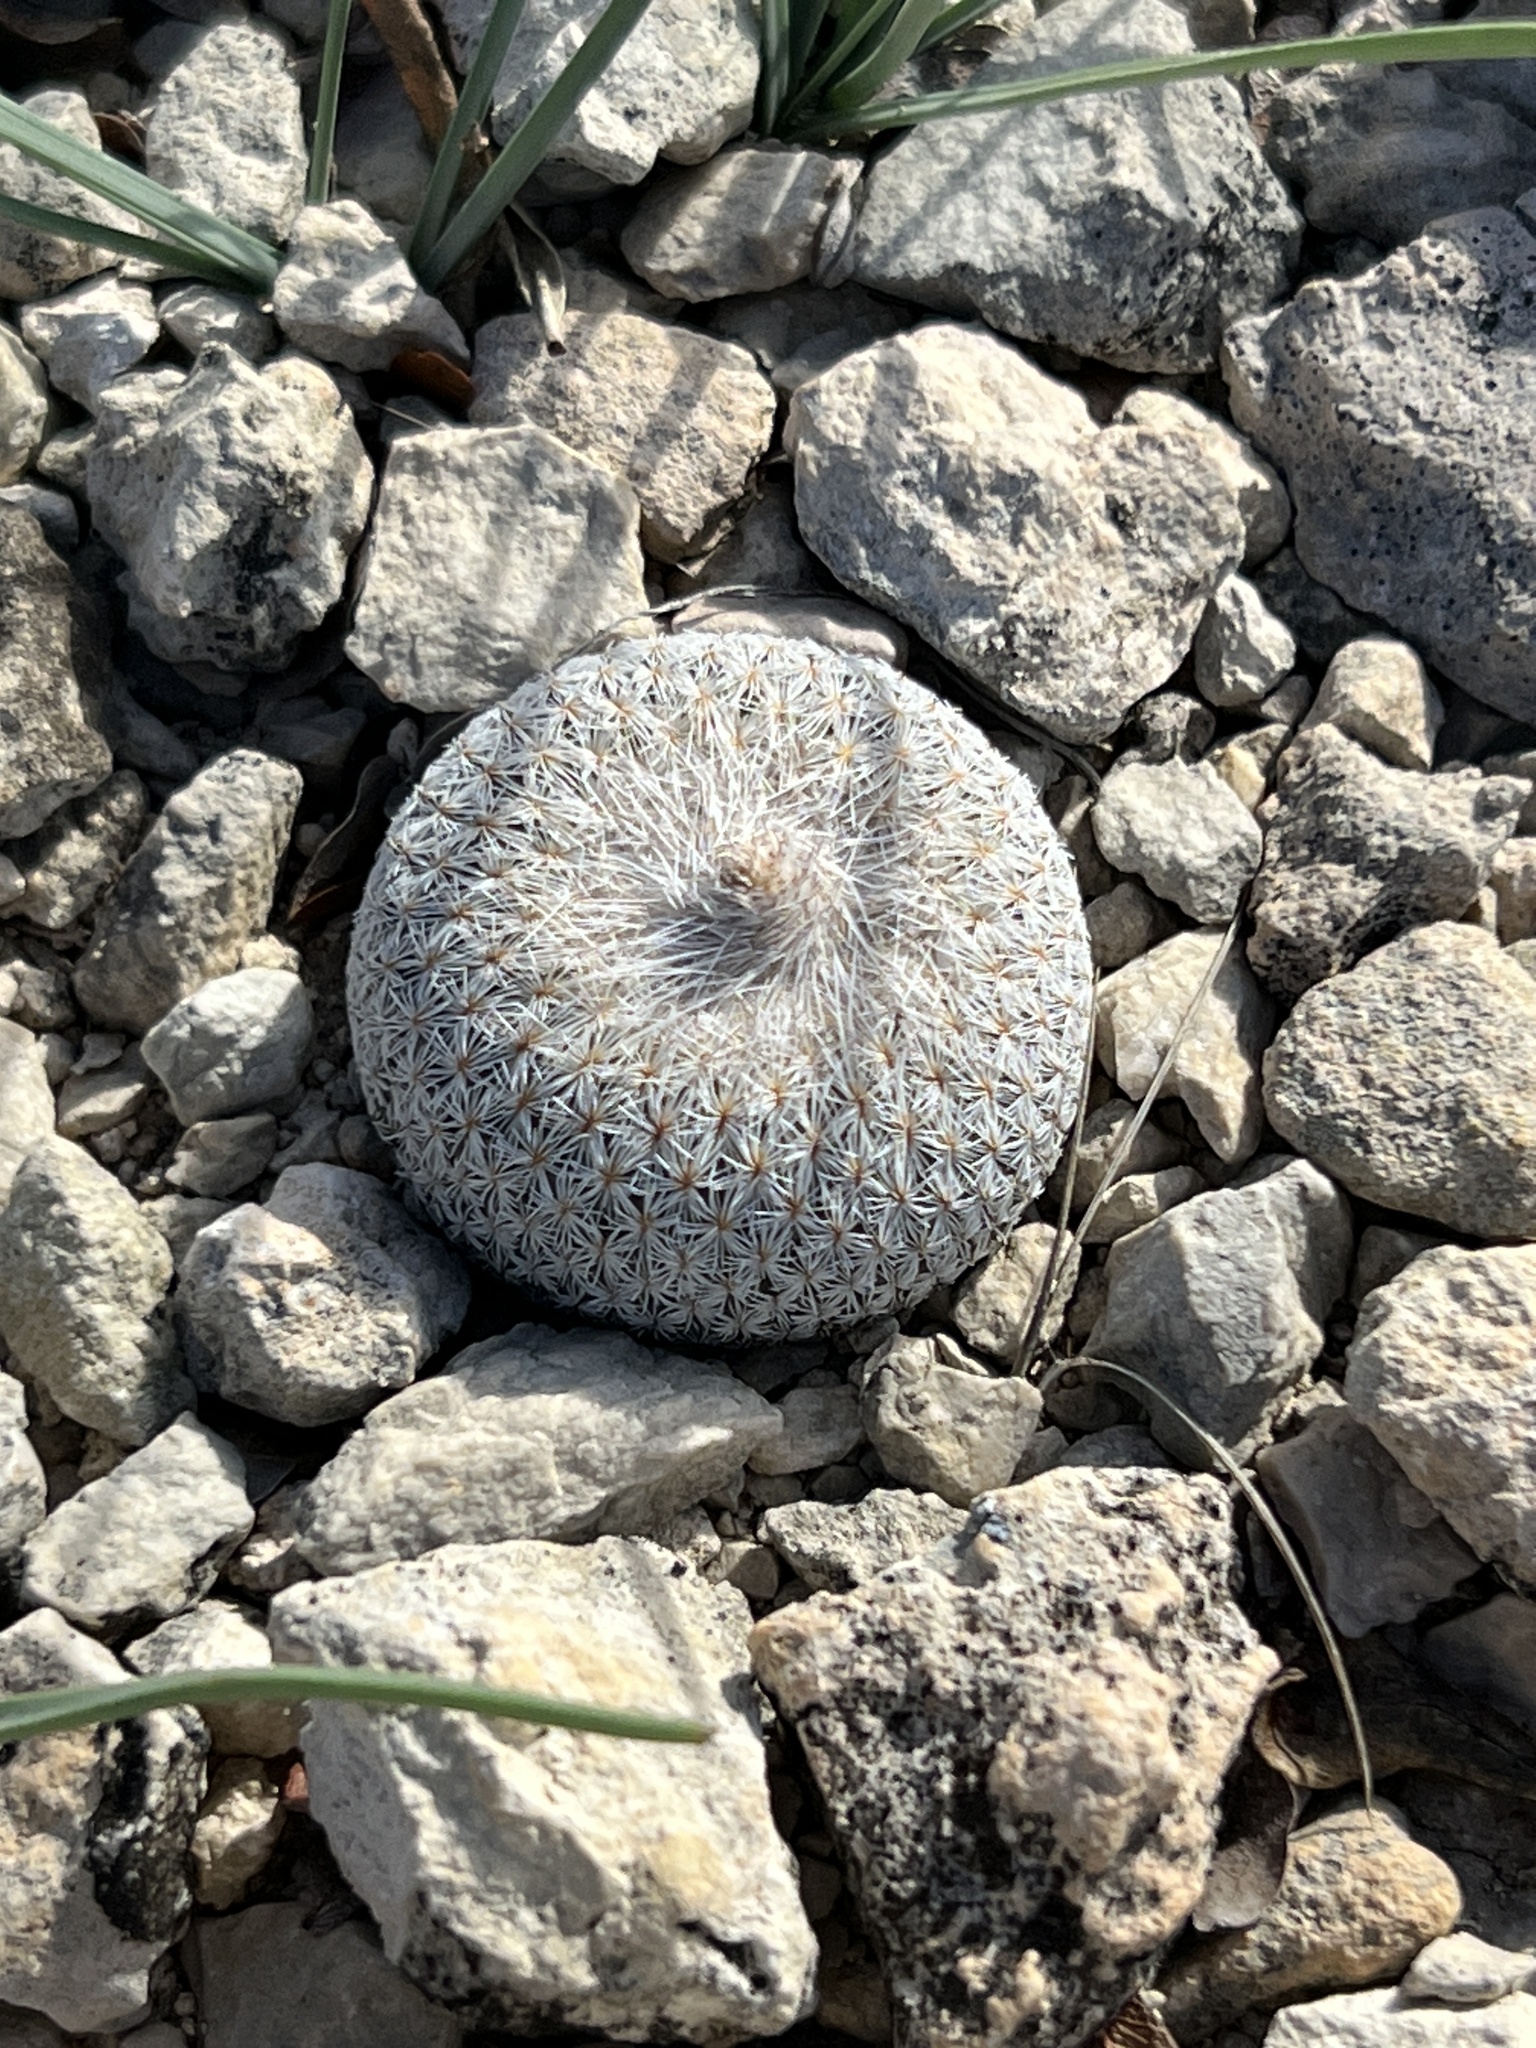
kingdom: Plantae
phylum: Tracheophyta
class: Magnoliopsida
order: Caryophyllales
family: Cactaceae
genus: Epithelantha
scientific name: Epithelantha micromeris
